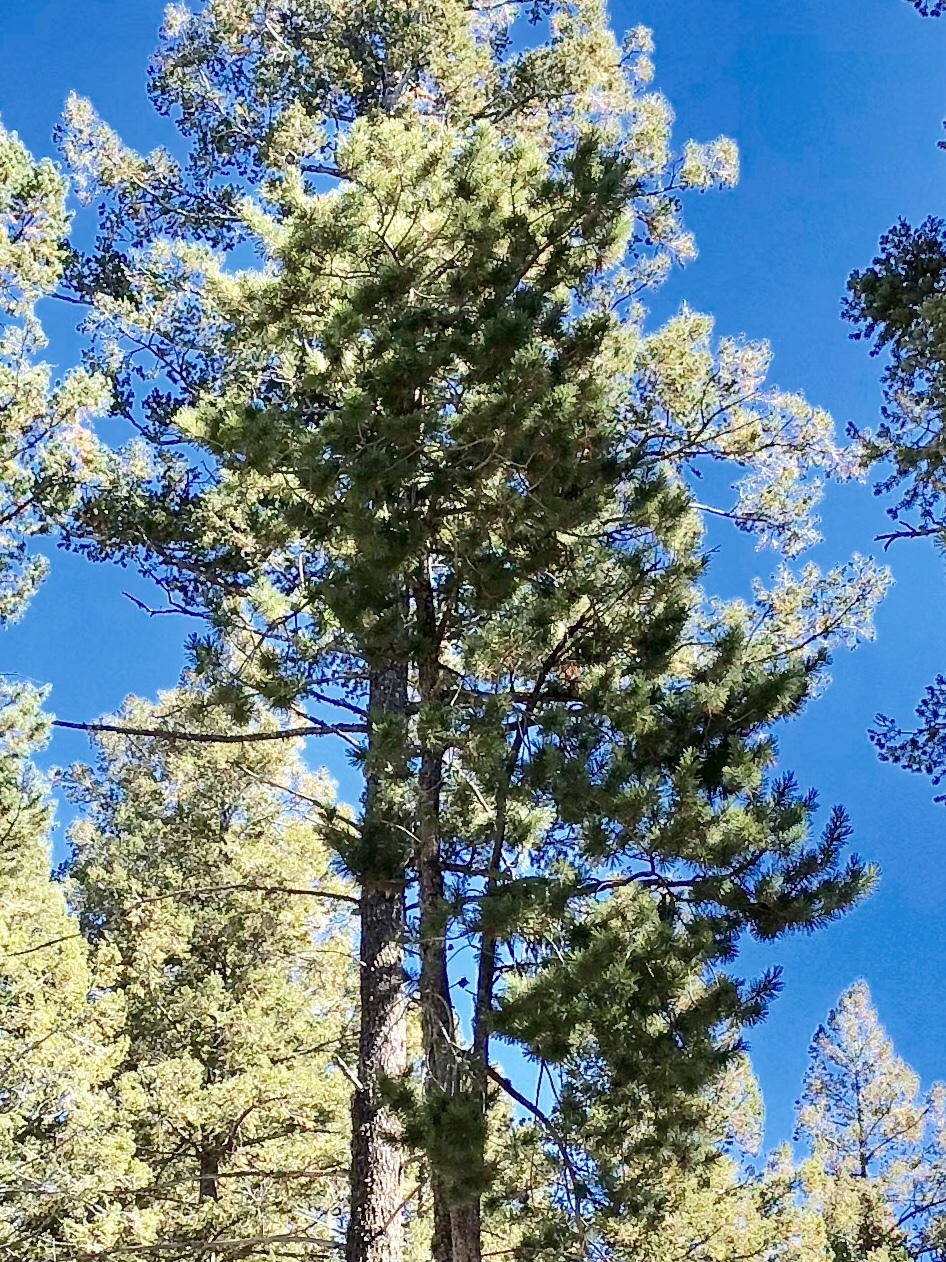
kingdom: Plantae
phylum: Tracheophyta
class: Pinopsida
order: Pinales
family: Pinaceae
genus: Pinus
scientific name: Pinus strobiformis
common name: Southwestern white pine
